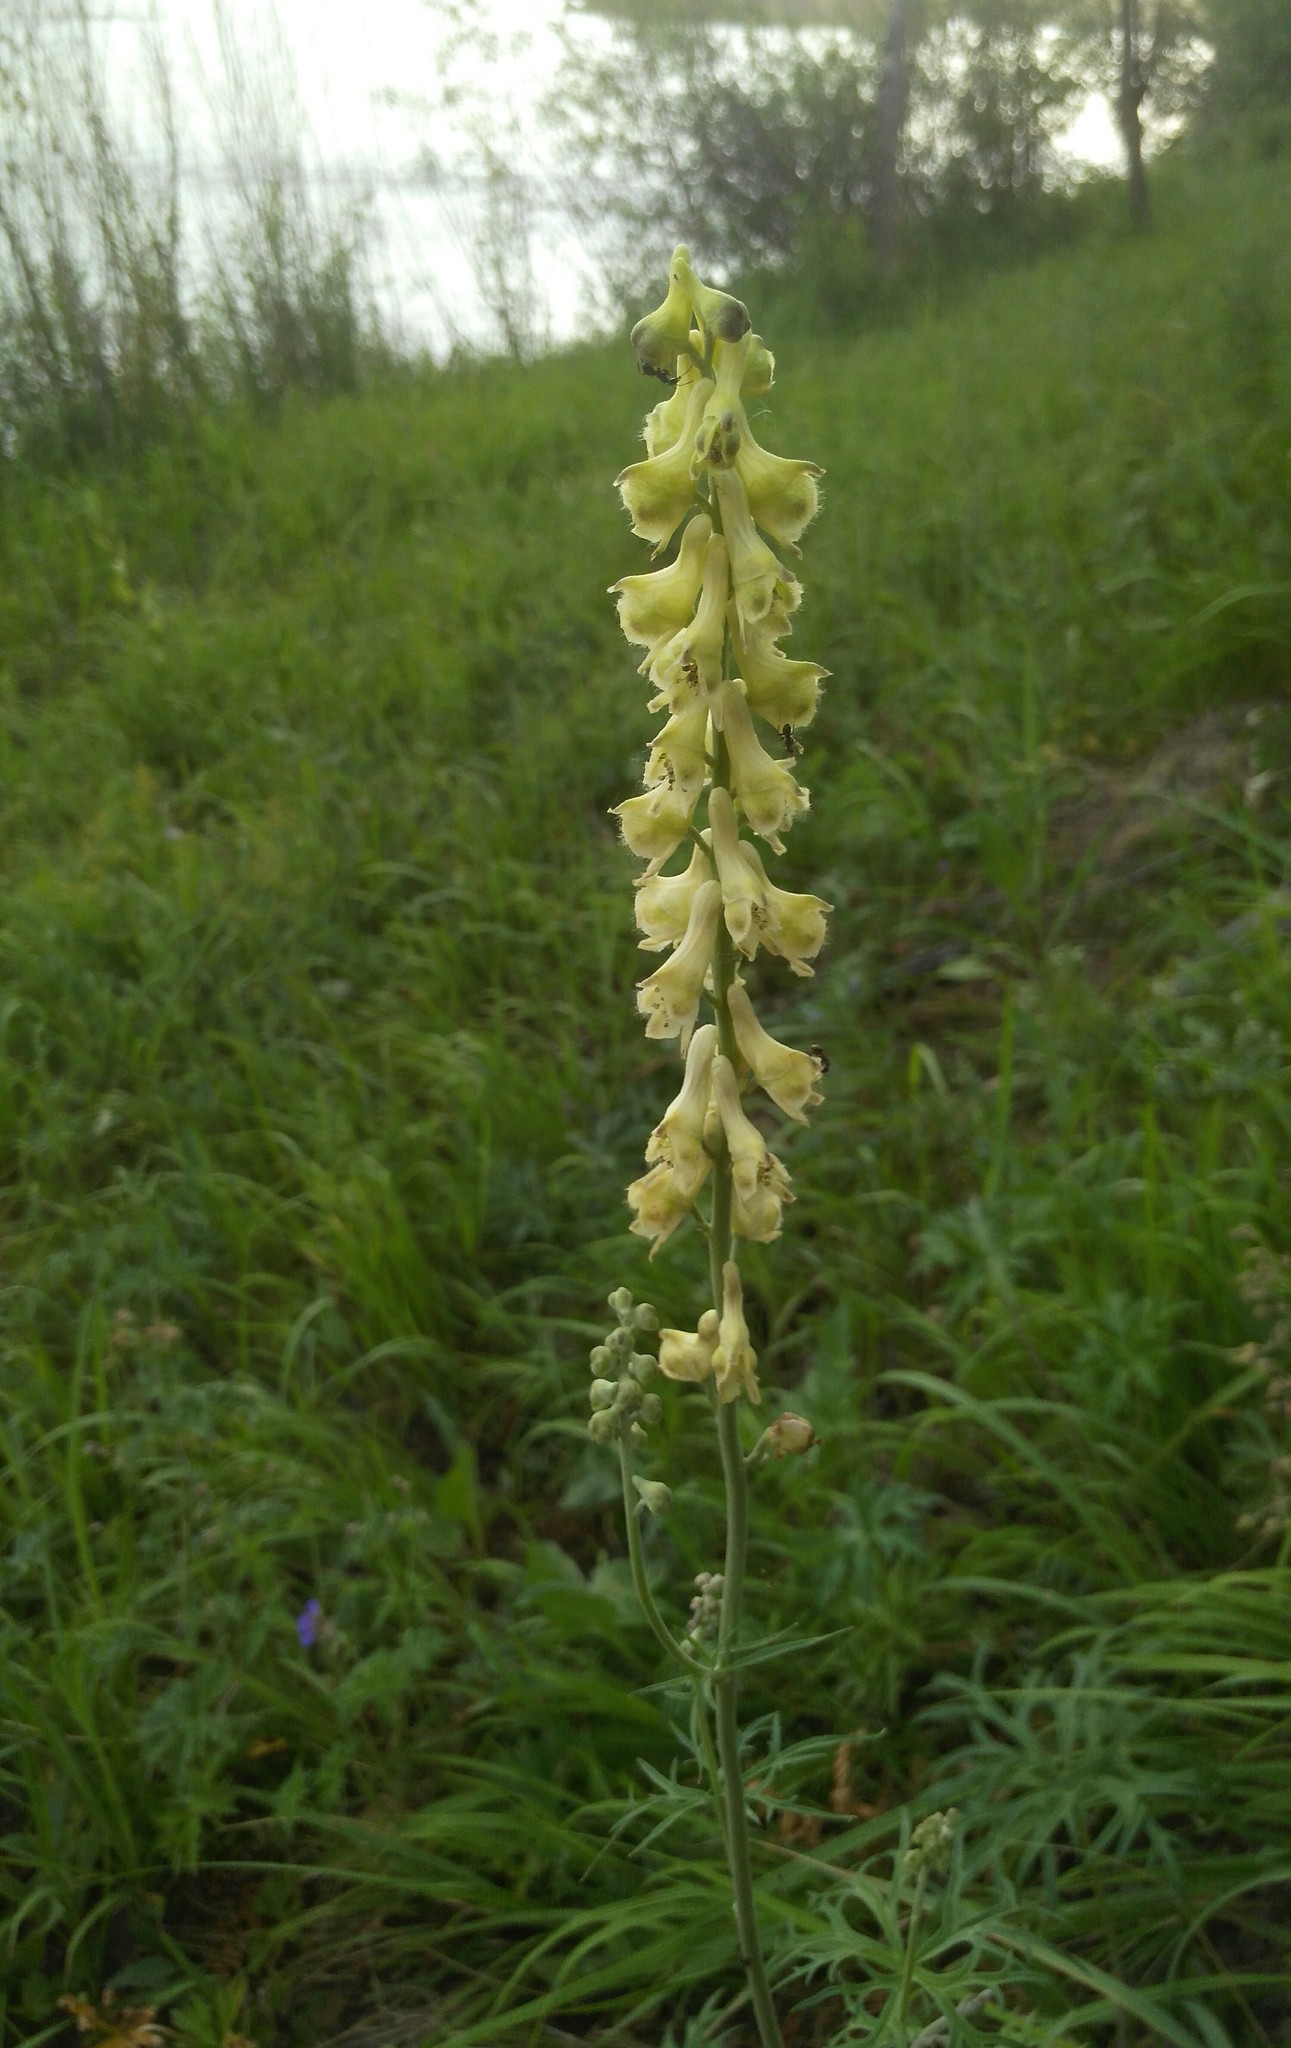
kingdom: Plantae
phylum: Tracheophyta
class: Magnoliopsida
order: Ranunculales
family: Ranunculaceae
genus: Aconitum
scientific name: Aconitum barbatum
